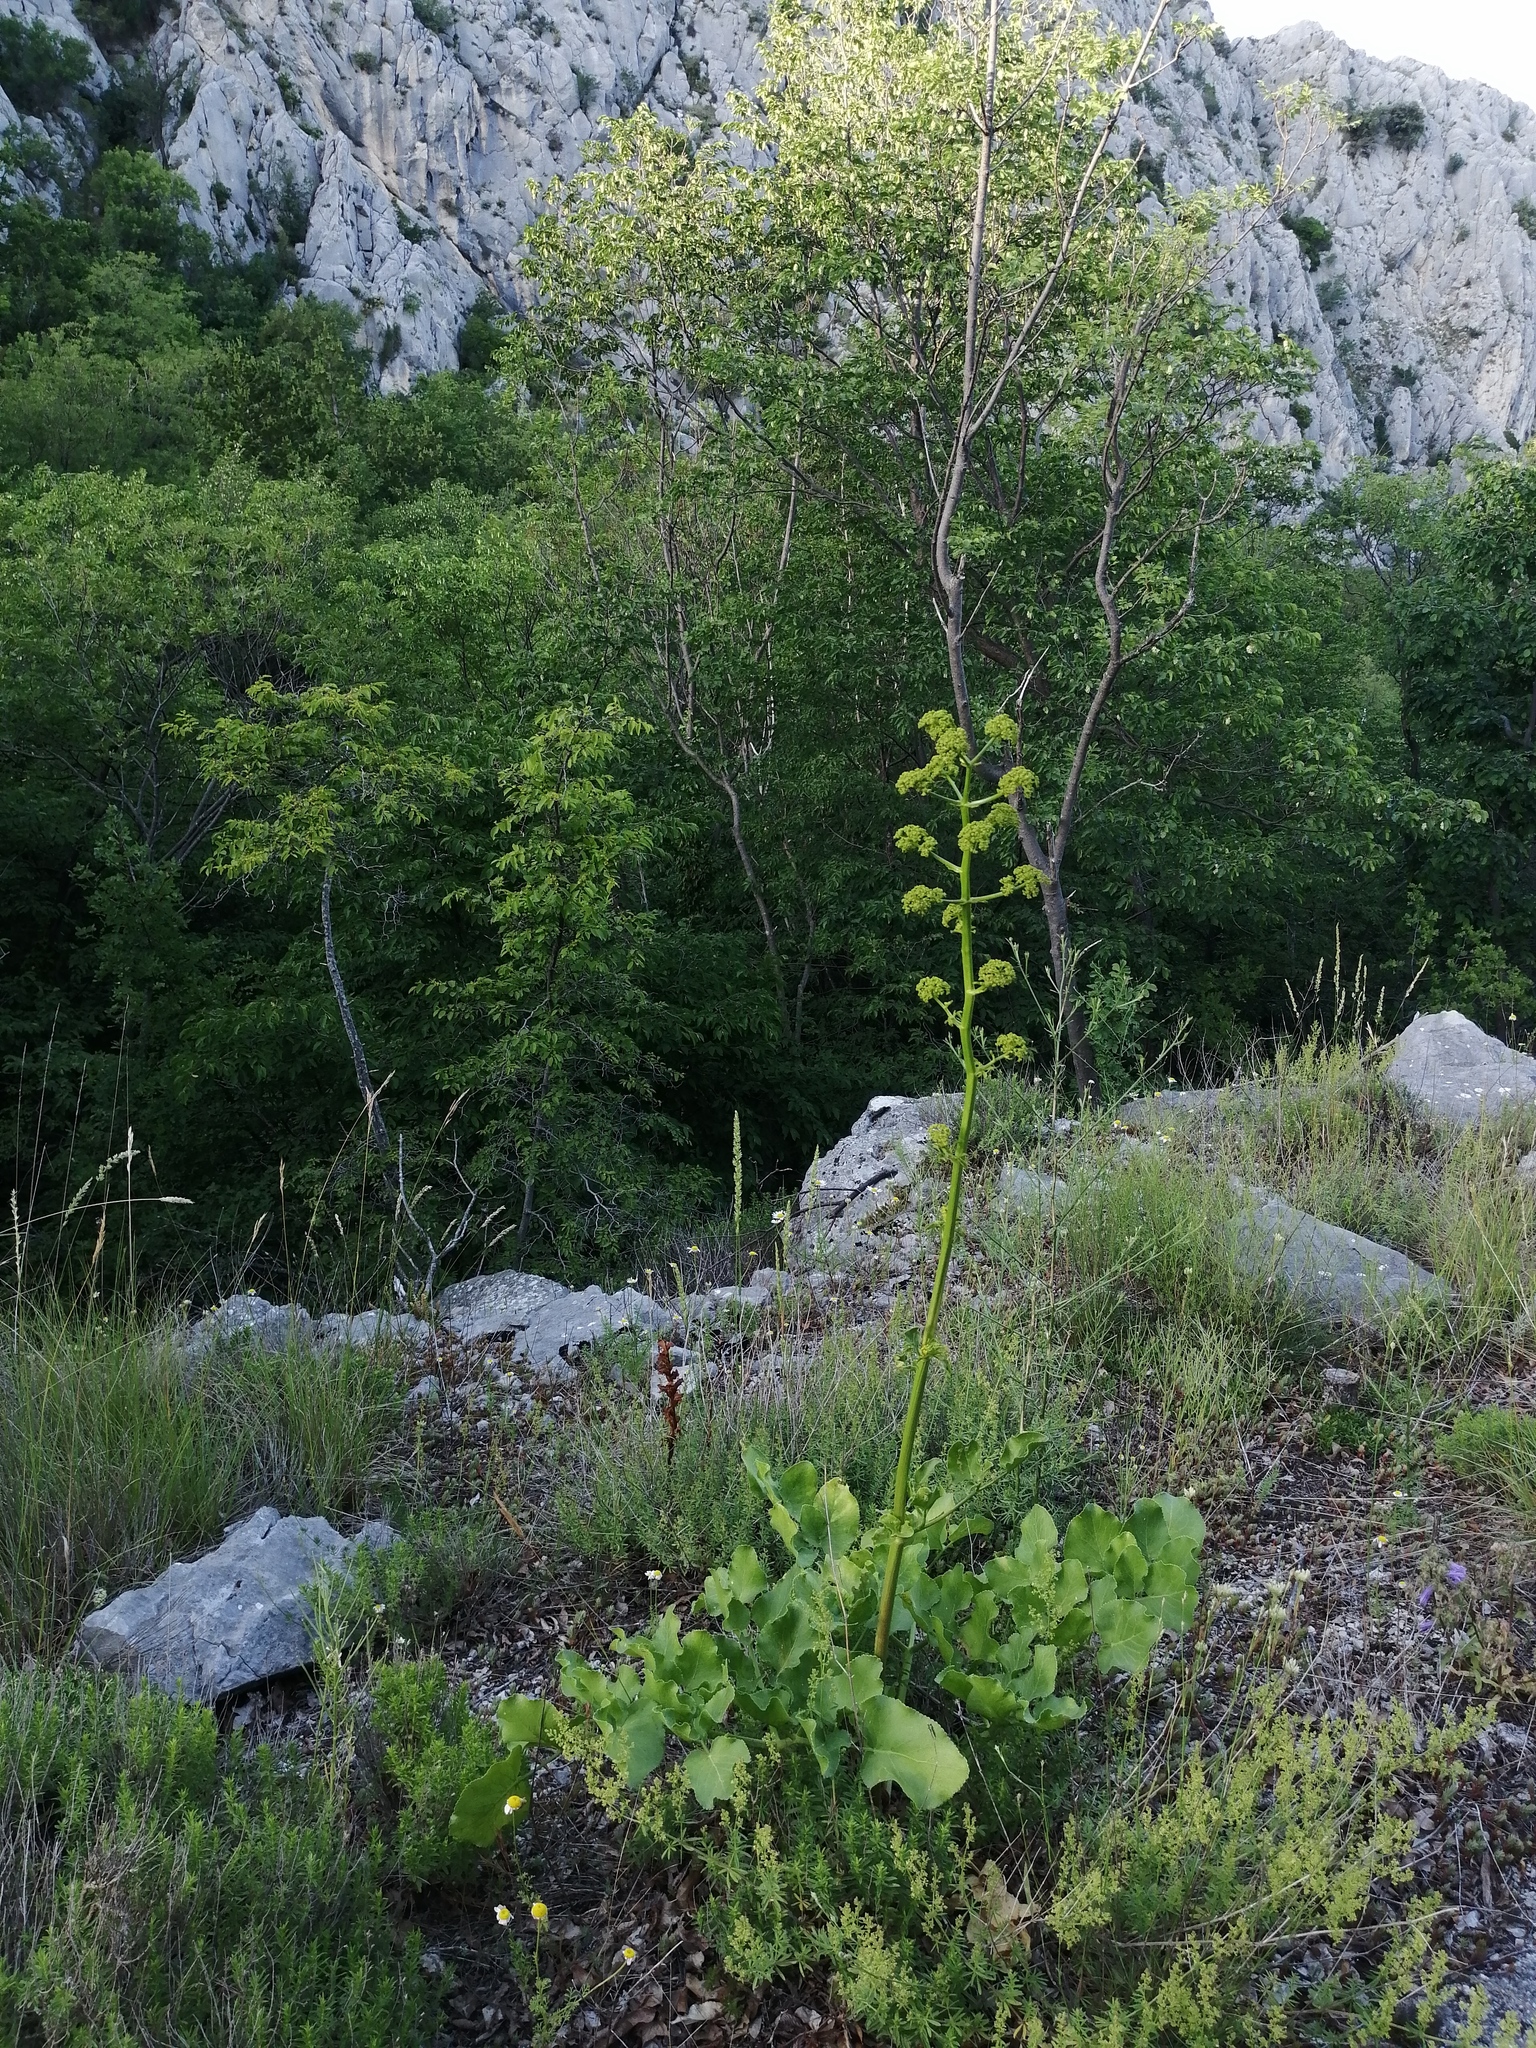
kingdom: Plantae
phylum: Tracheophyta
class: Magnoliopsida
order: Apiales
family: Apiaceae
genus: Opopanax
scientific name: Opopanax chironium
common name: Hercules-all-heal
